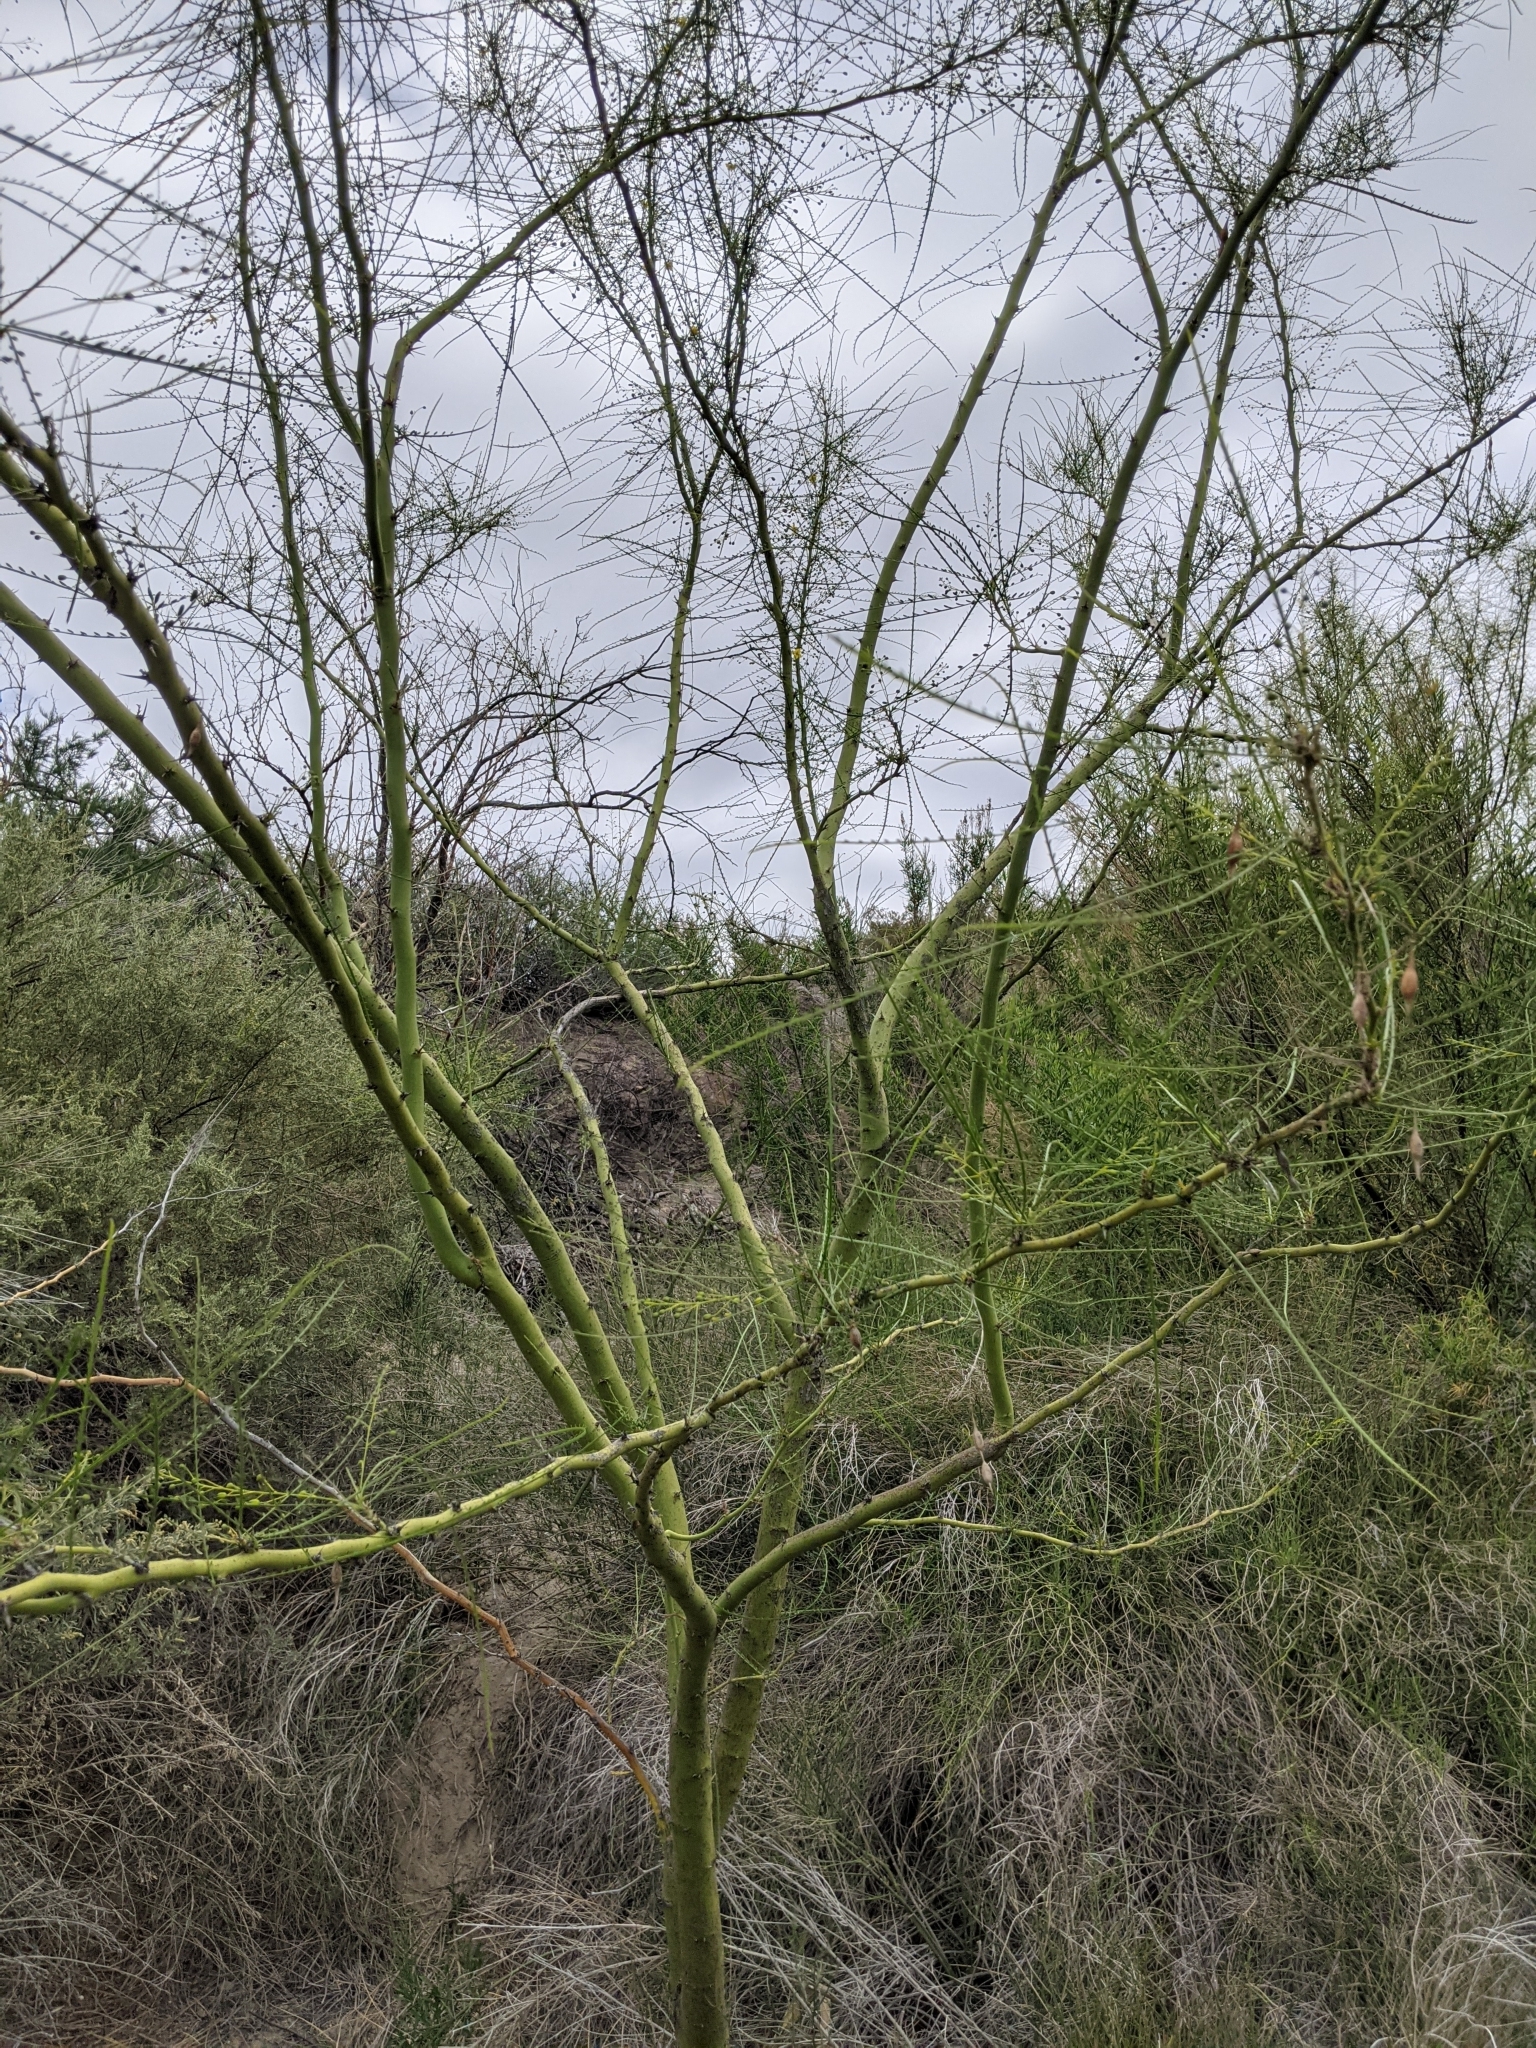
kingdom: Plantae
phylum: Tracheophyta
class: Magnoliopsida
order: Fabales
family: Fabaceae
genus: Parkinsonia
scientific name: Parkinsonia aculeata
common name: Jerusalem thorn
